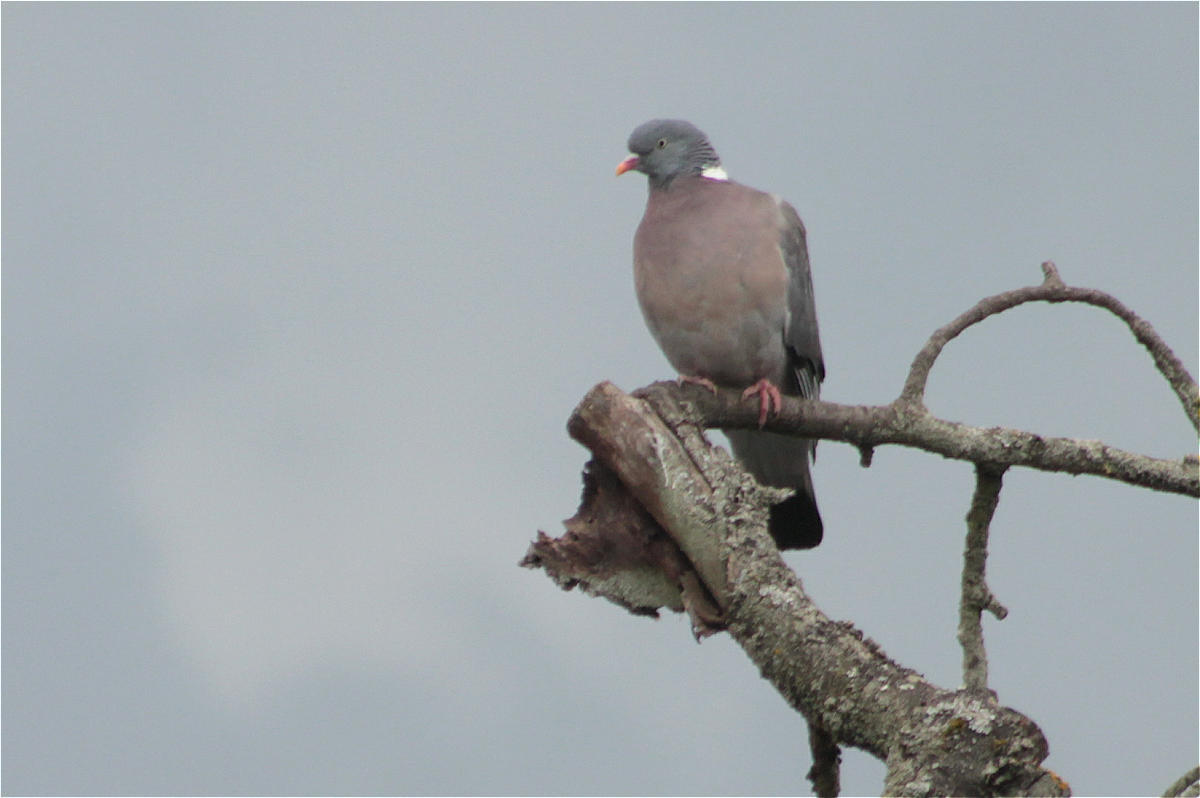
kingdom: Animalia
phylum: Chordata
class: Aves
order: Columbiformes
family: Columbidae
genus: Columba
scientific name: Columba palumbus
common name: Common wood pigeon
